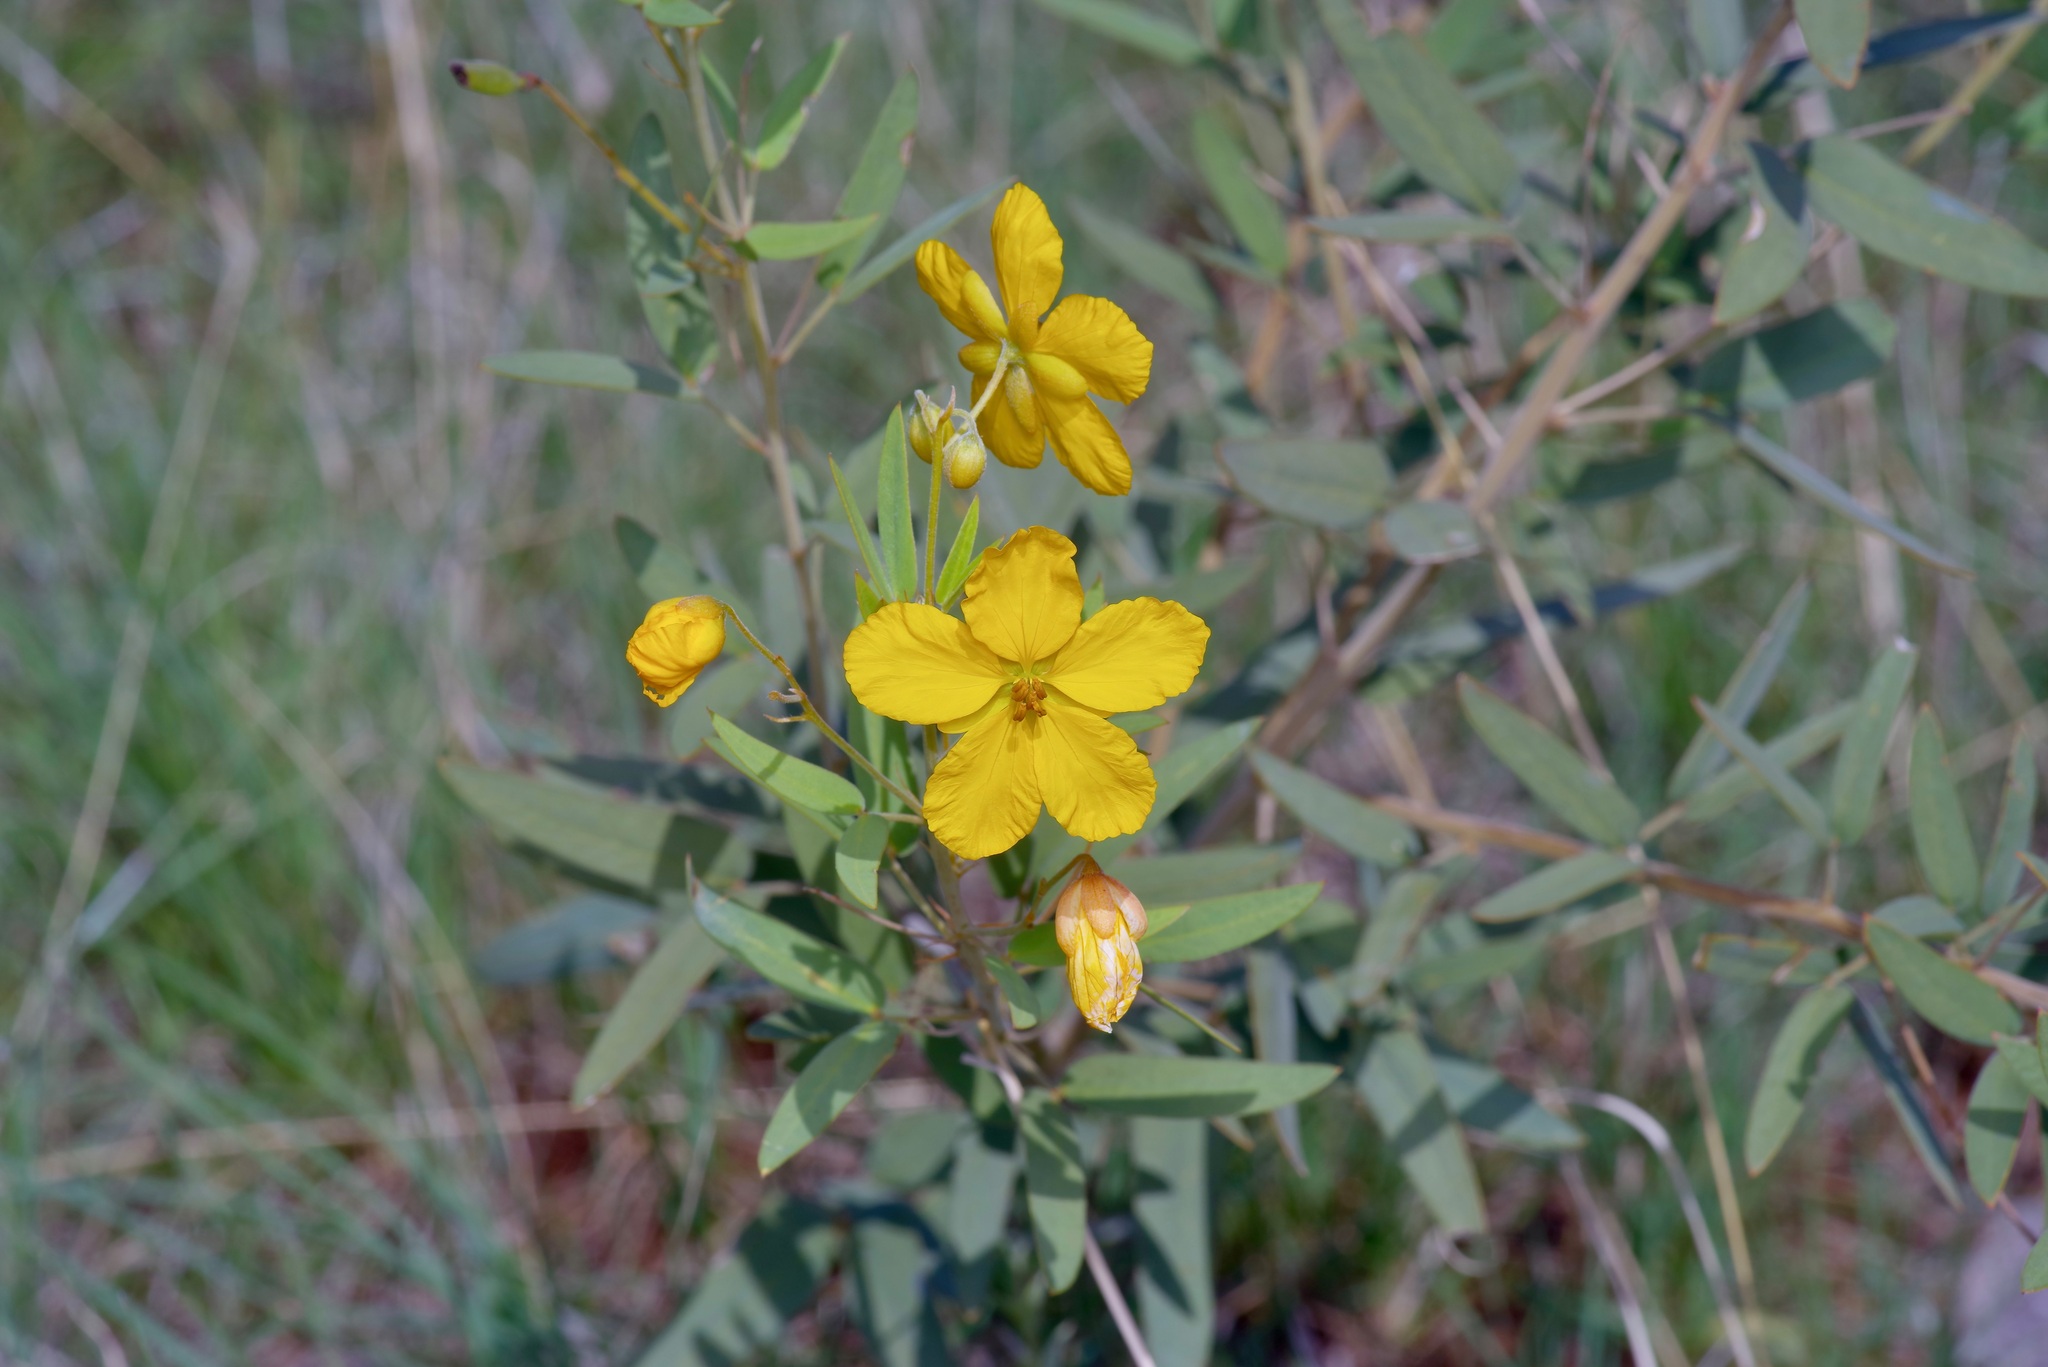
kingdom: Plantae
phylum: Tracheophyta
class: Magnoliopsida
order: Fabales
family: Fabaceae
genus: Senna
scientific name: Senna roemeriana
